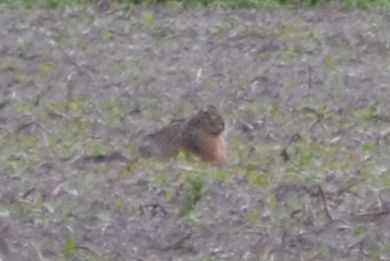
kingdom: Animalia
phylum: Chordata
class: Mammalia
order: Lagomorpha
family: Leporidae
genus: Lepus
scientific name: Lepus europaeus
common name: European hare
